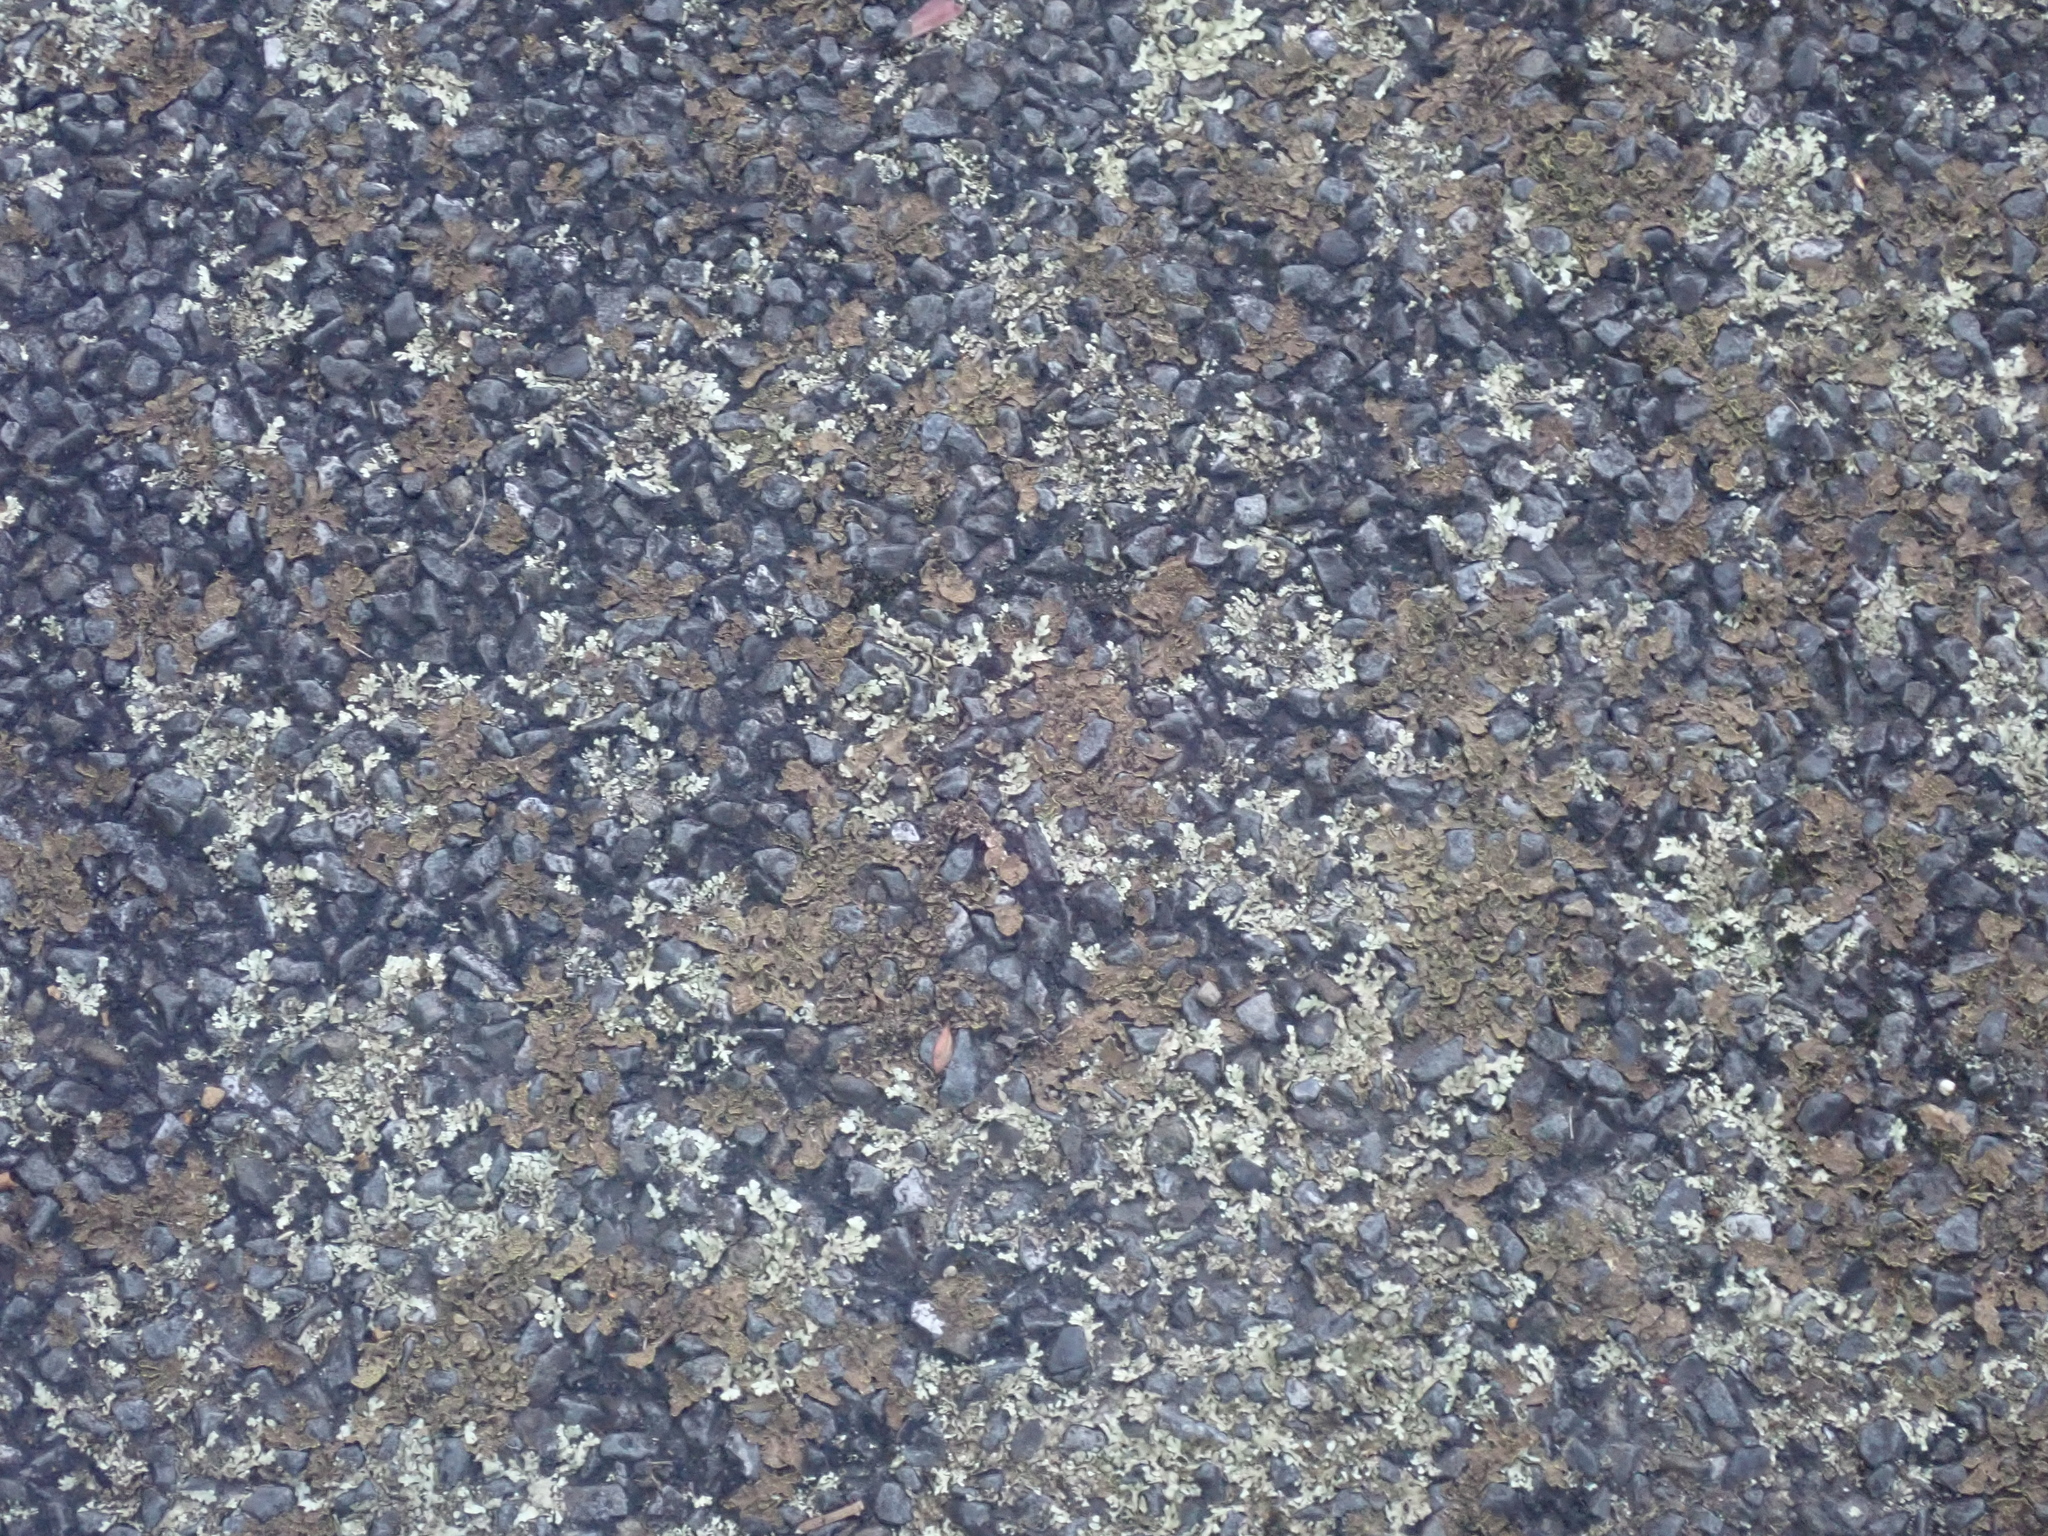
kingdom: Fungi
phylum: Ascomycota
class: Lecanoromycetes
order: Peltigerales
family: Lobariaceae
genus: Pseudocyphellaria
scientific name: Pseudocyphellaria neglecta
